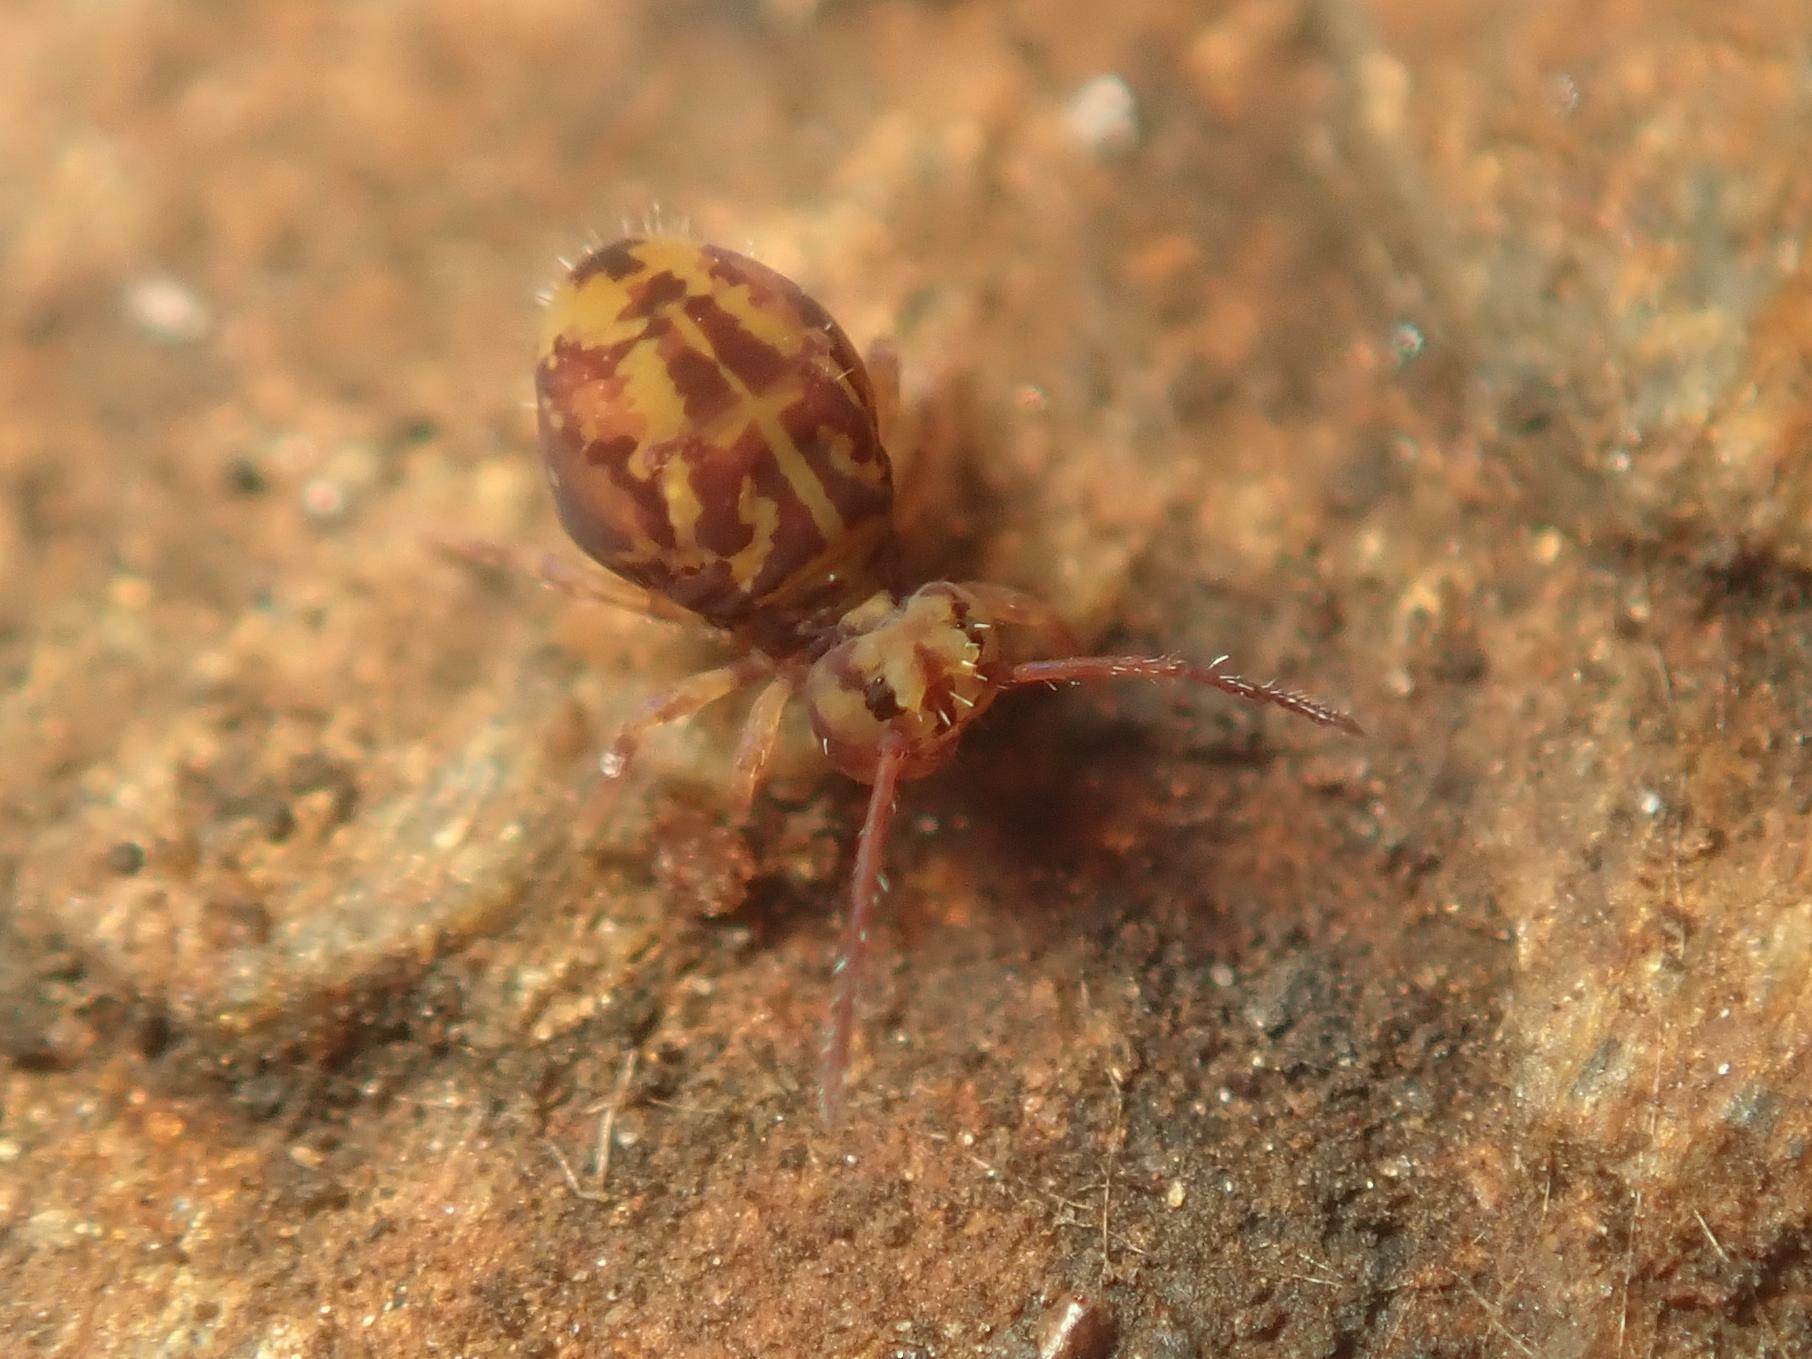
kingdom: Animalia
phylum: Arthropoda
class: Collembola
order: Symphypleona
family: Dicyrtomidae
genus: Dicyrtomina
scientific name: Dicyrtomina ornata
